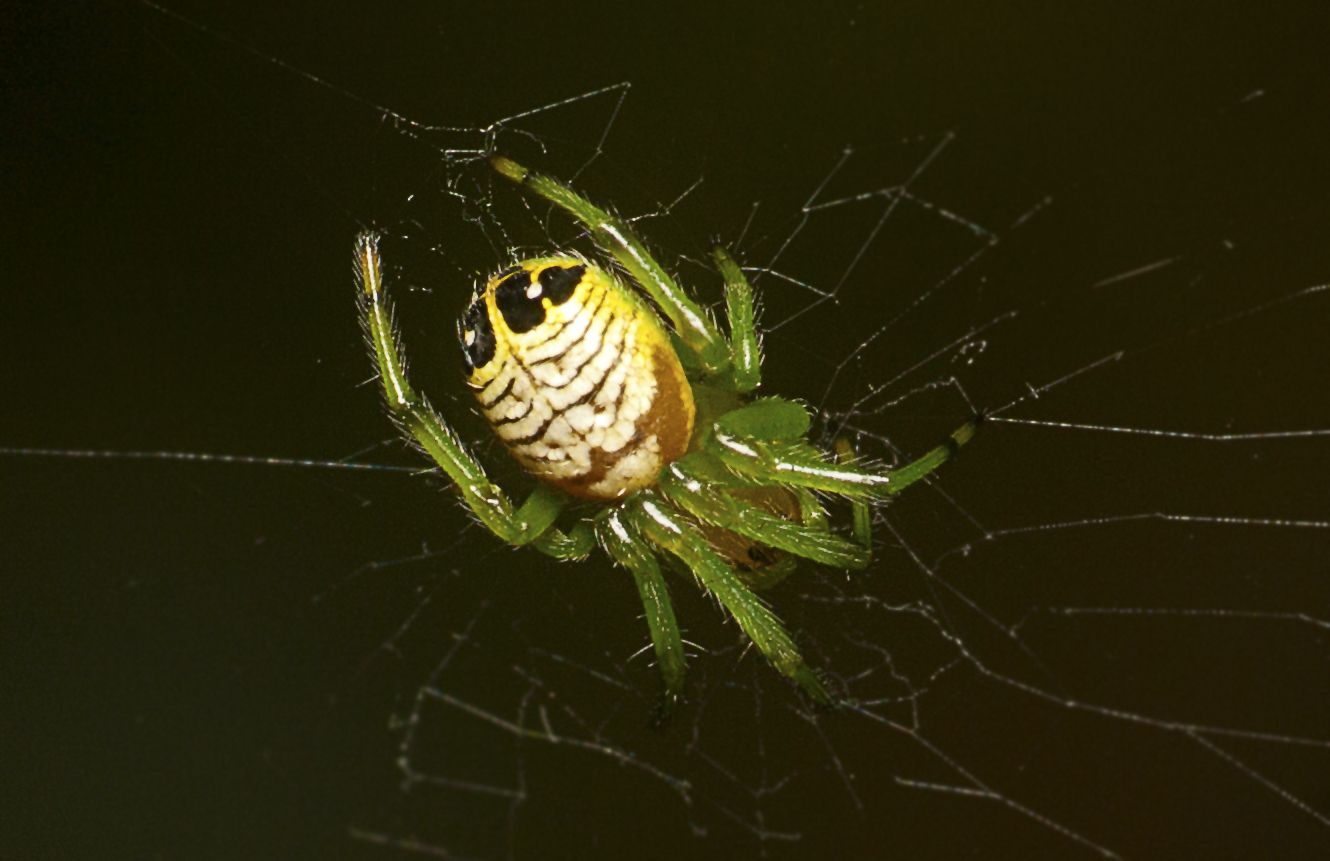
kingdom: Animalia
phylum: Arthropoda
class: Arachnida
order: Araneae
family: Araneidae
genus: Bijoaraneus
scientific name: Bijoaraneus praesignis
